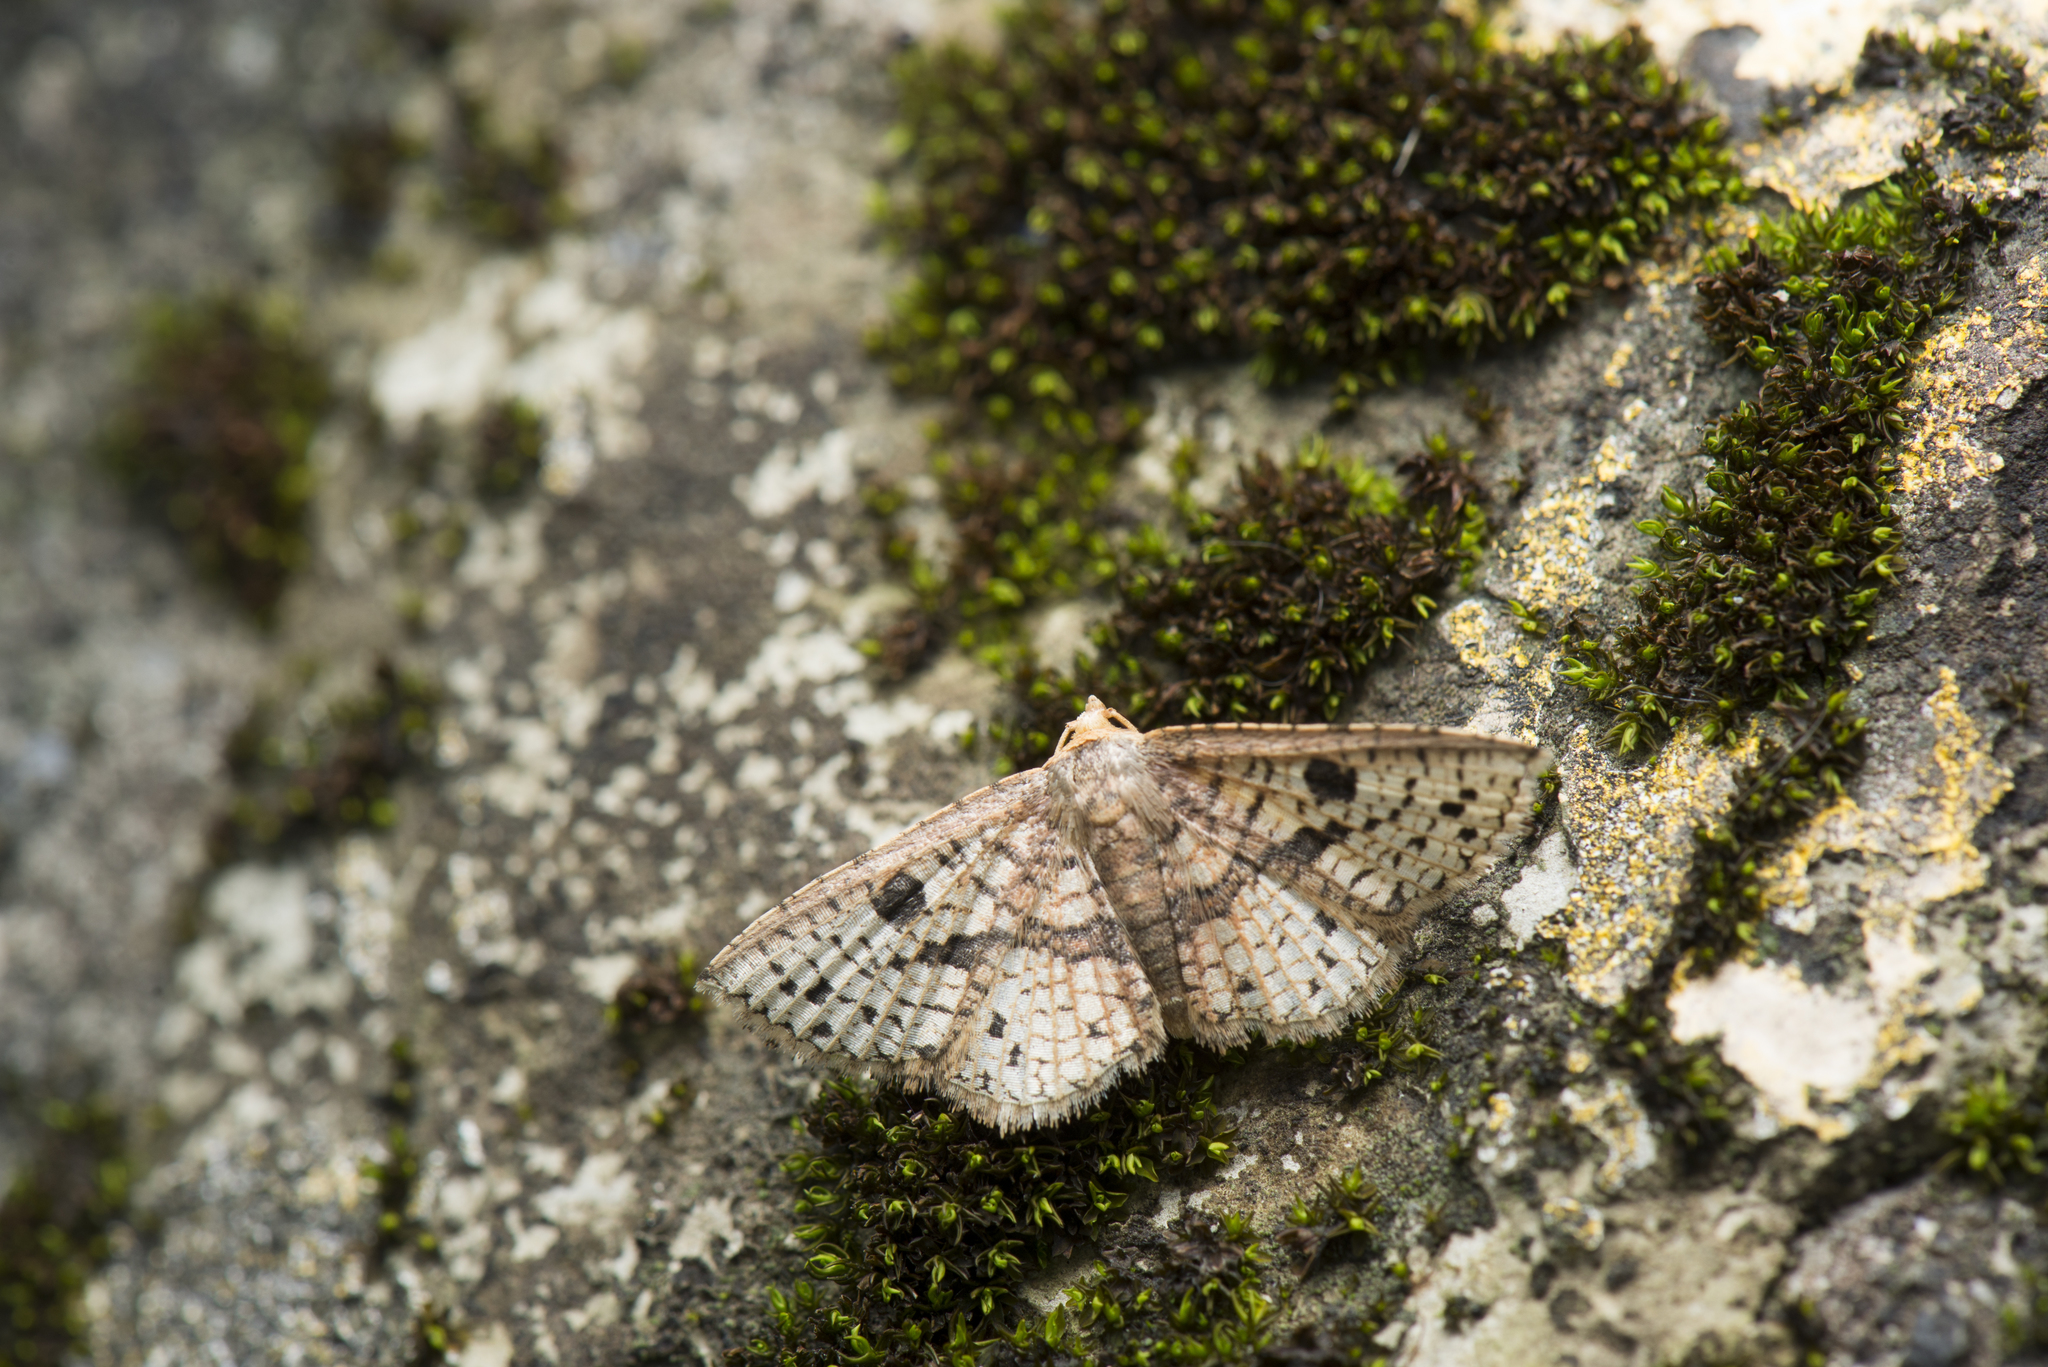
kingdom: Animalia
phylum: Arthropoda
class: Insecta
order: Lepidoptera
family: Thyrididae
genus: Striglina
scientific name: Striglina suzukii
